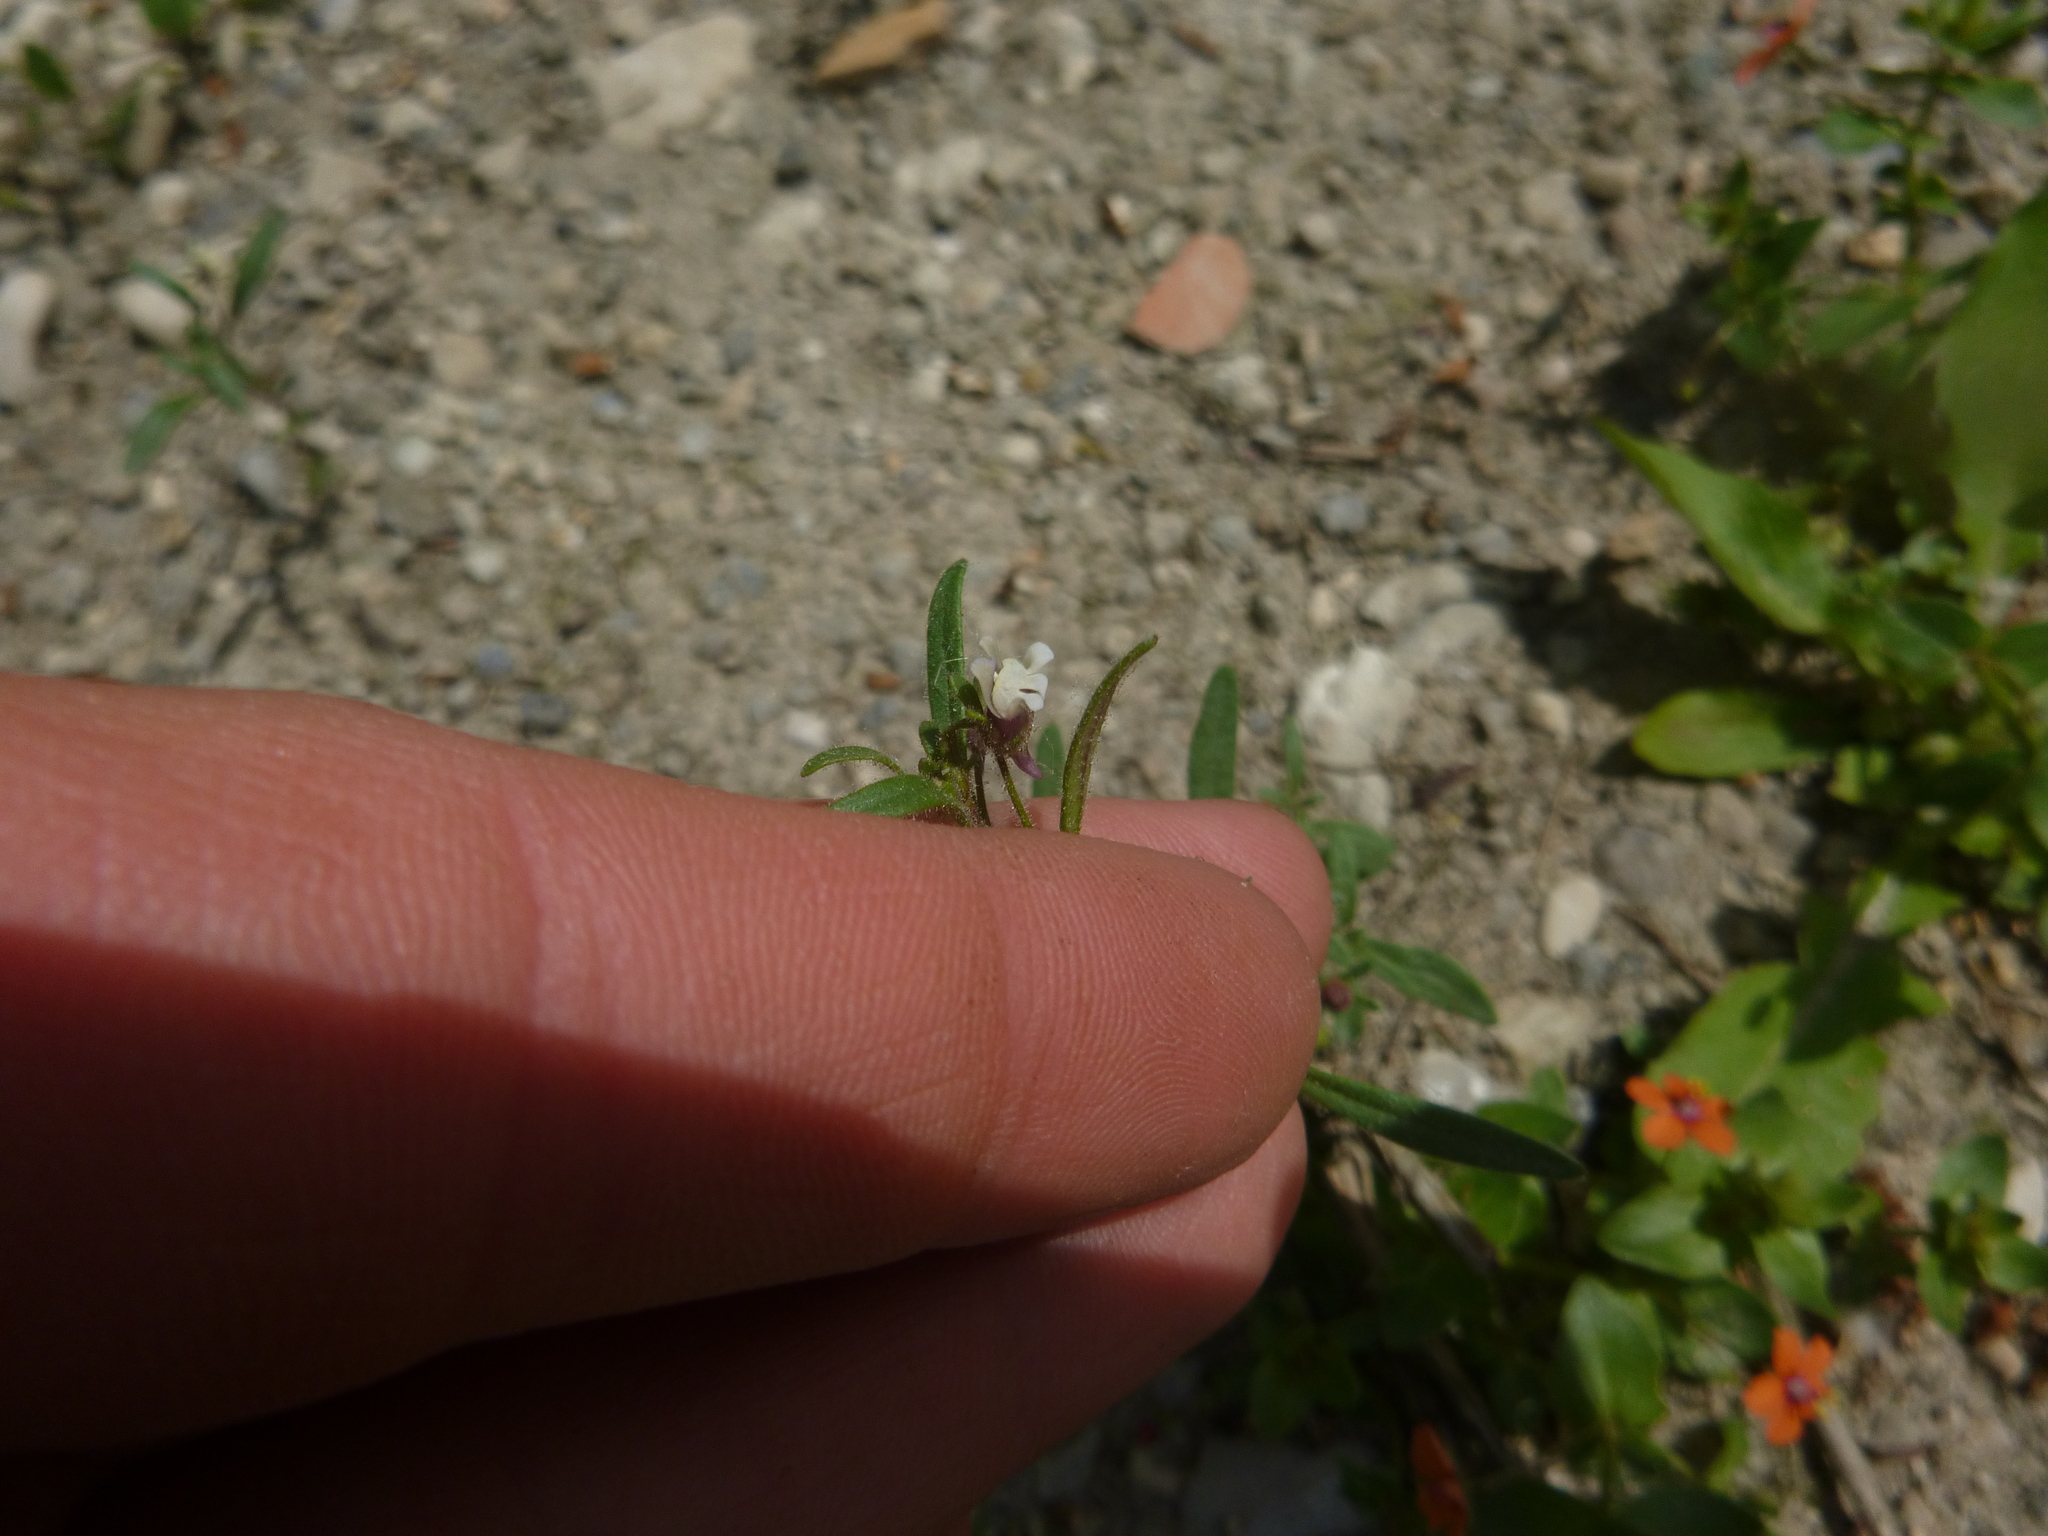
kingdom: Plantae
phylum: Tracheophyta
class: Magnoliopsida
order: Lamiales
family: Plantaginaceae
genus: Chaenorhinum
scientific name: Chaenorhinum minus
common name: Dwarf snapdragon
